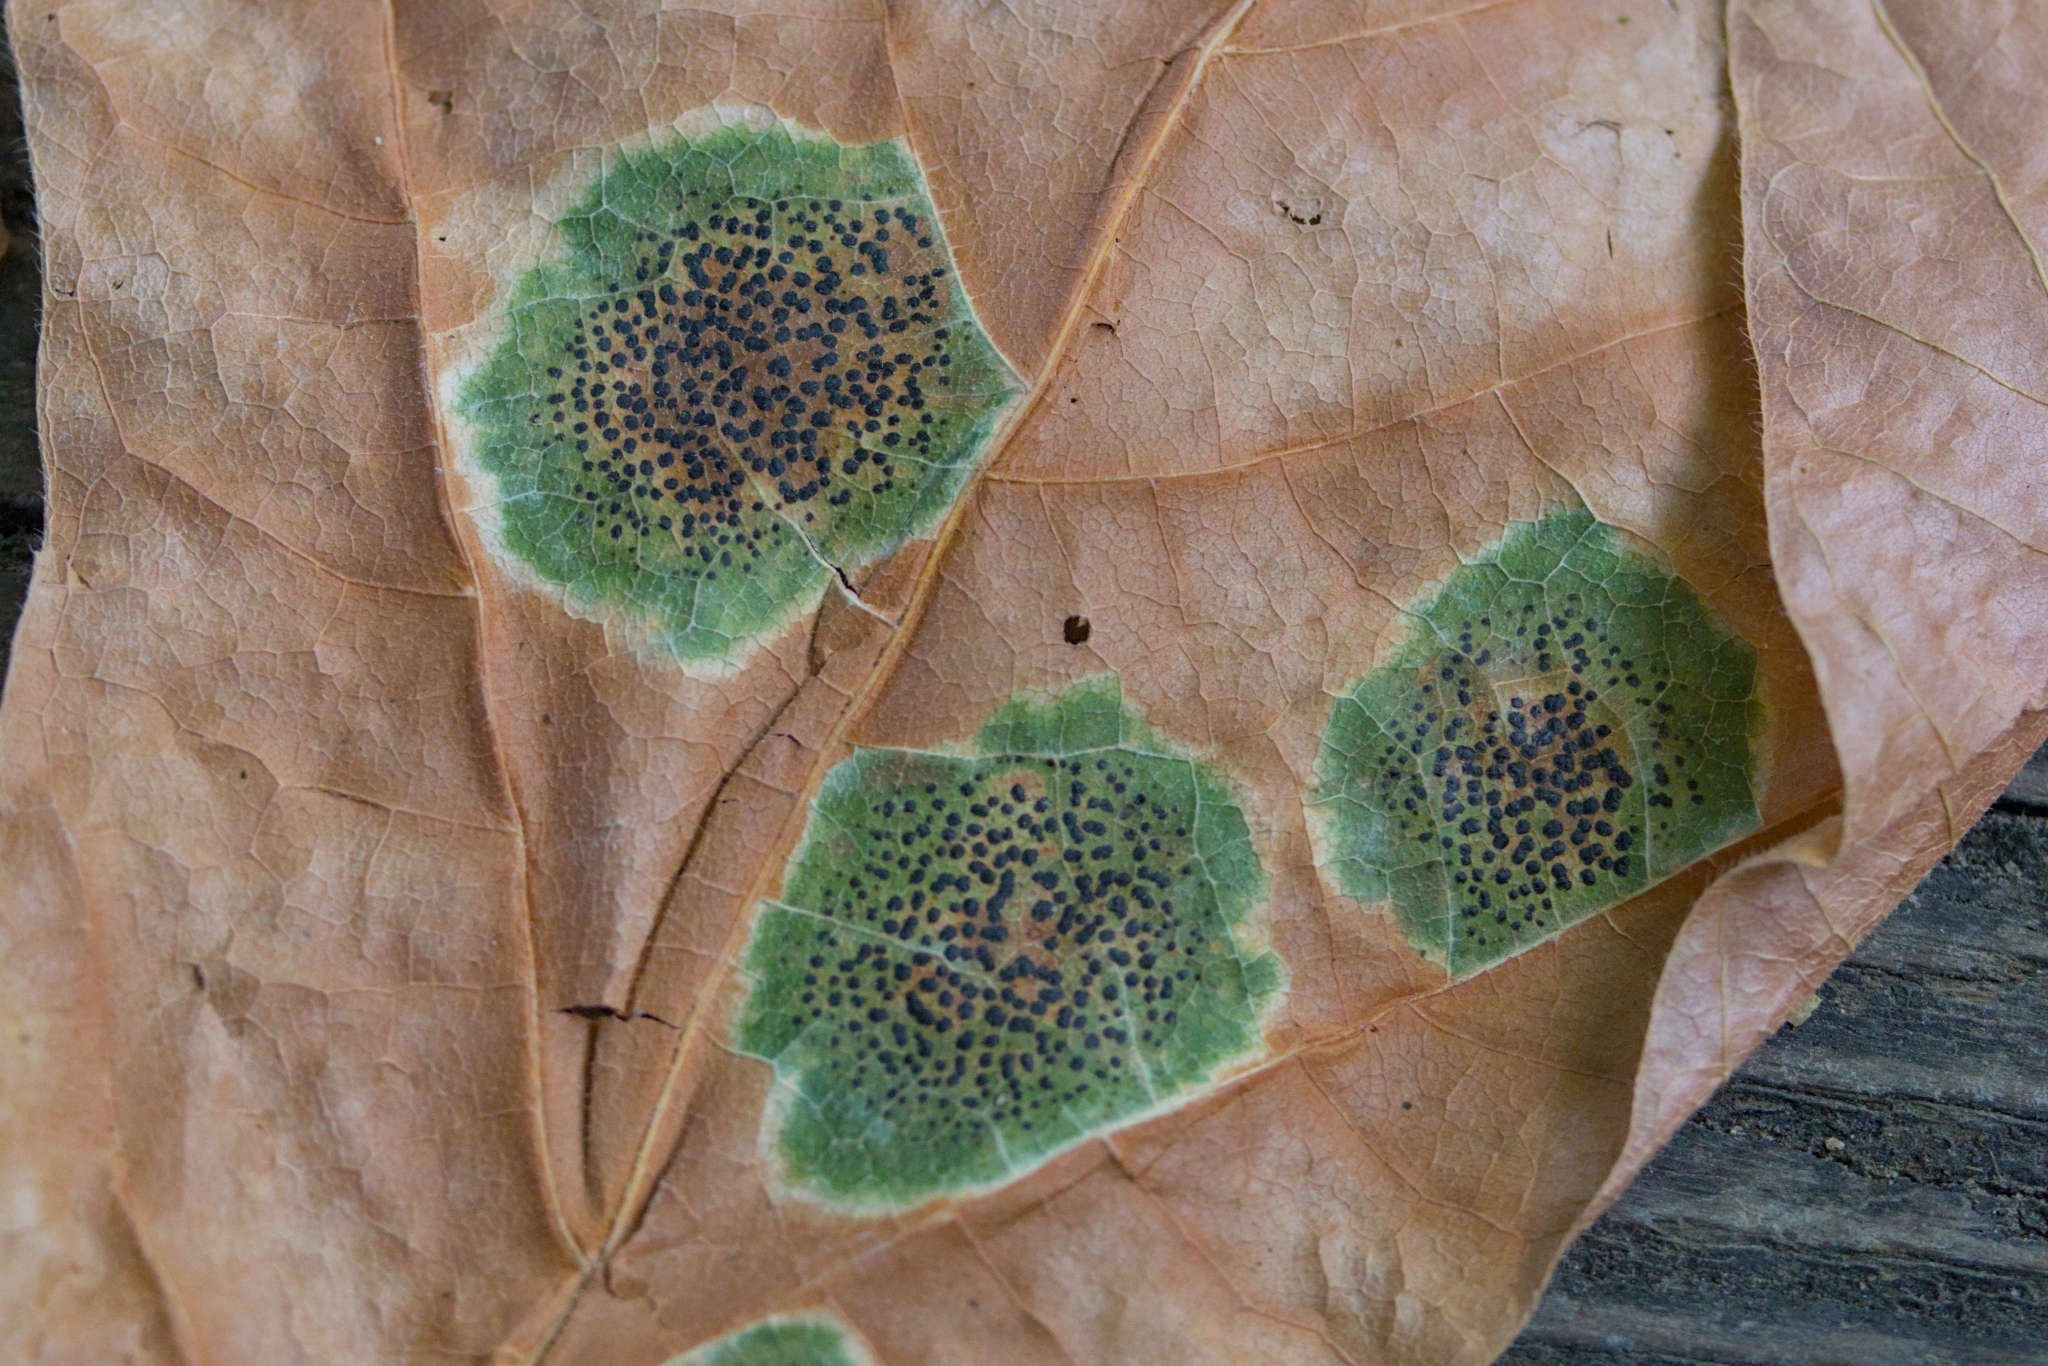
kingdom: Fungi
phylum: Ascomycota
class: Leotiomycetes
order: Rhytismatales
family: Rhytismataceae
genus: Rhytisma
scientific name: Rhytisma punctatum
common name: Speckled tar spot
